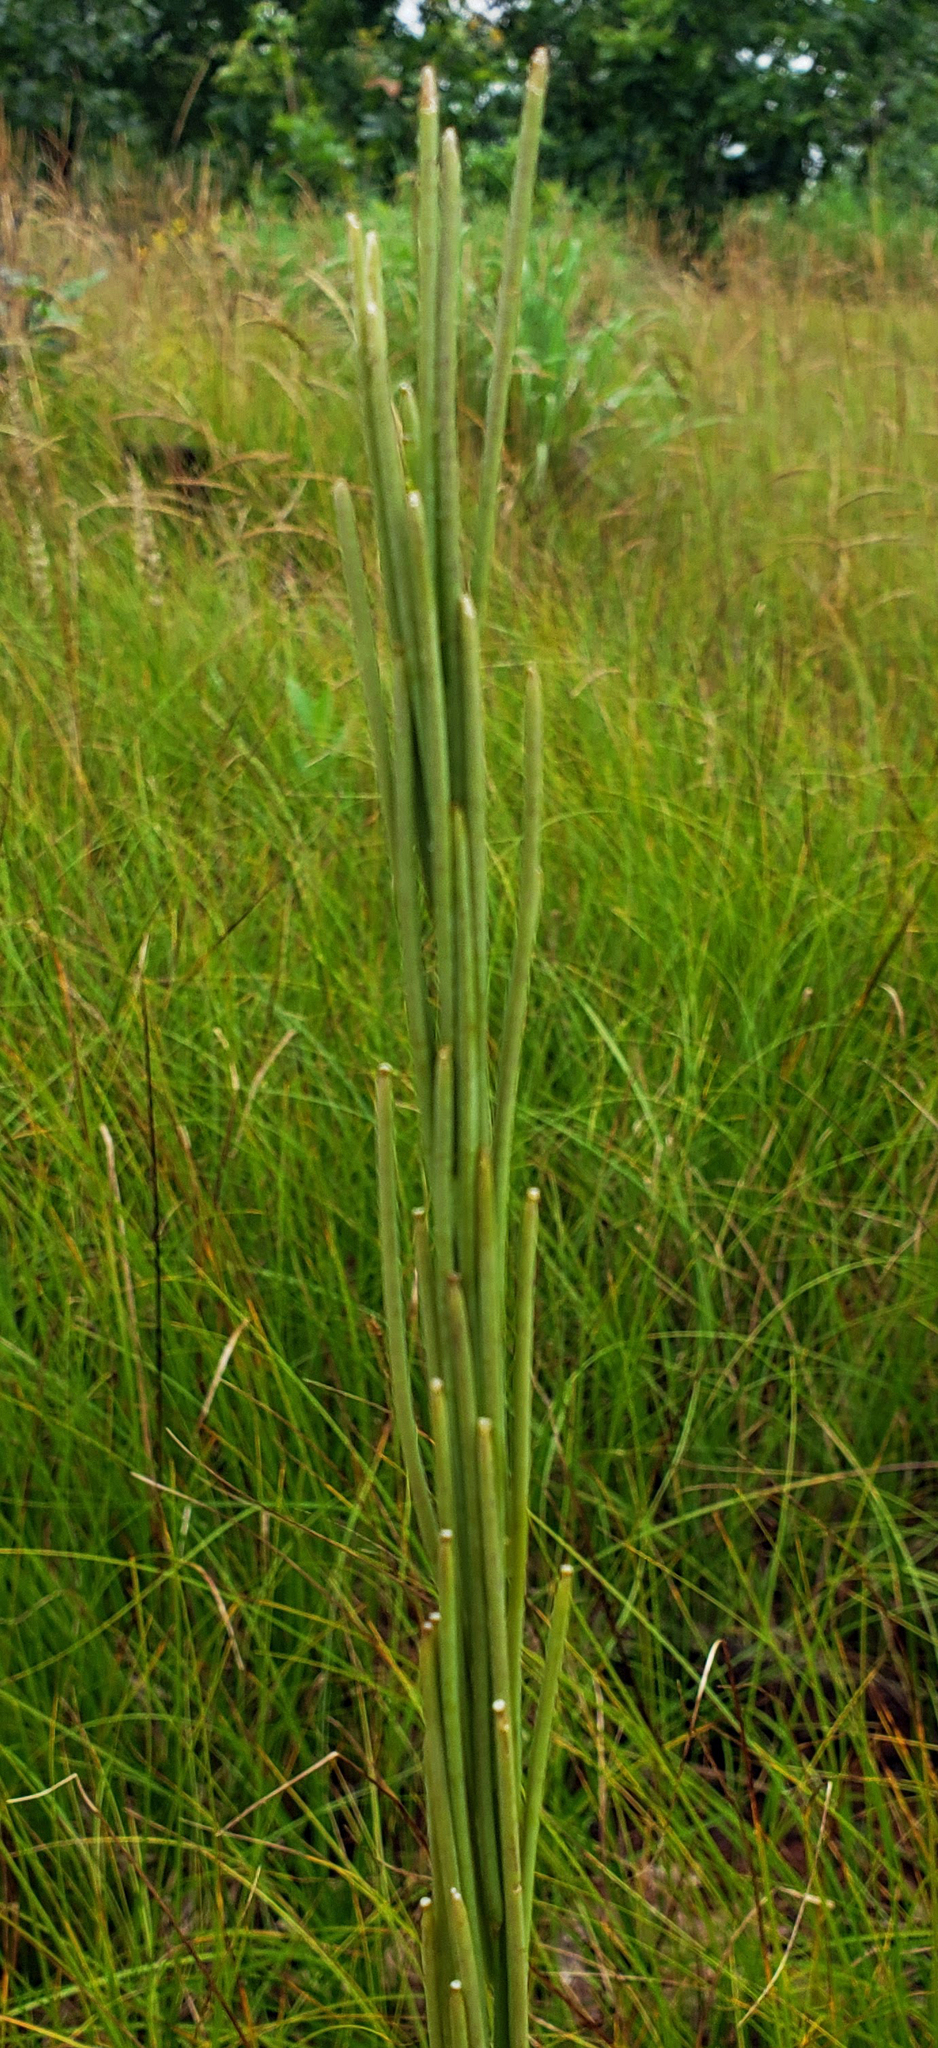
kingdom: Plantae
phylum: Tracheophyta
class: Magnoliopsida
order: Brassicales
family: Brassicaceae
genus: Turritis
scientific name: Turritis glabra
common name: Tower rockcress
